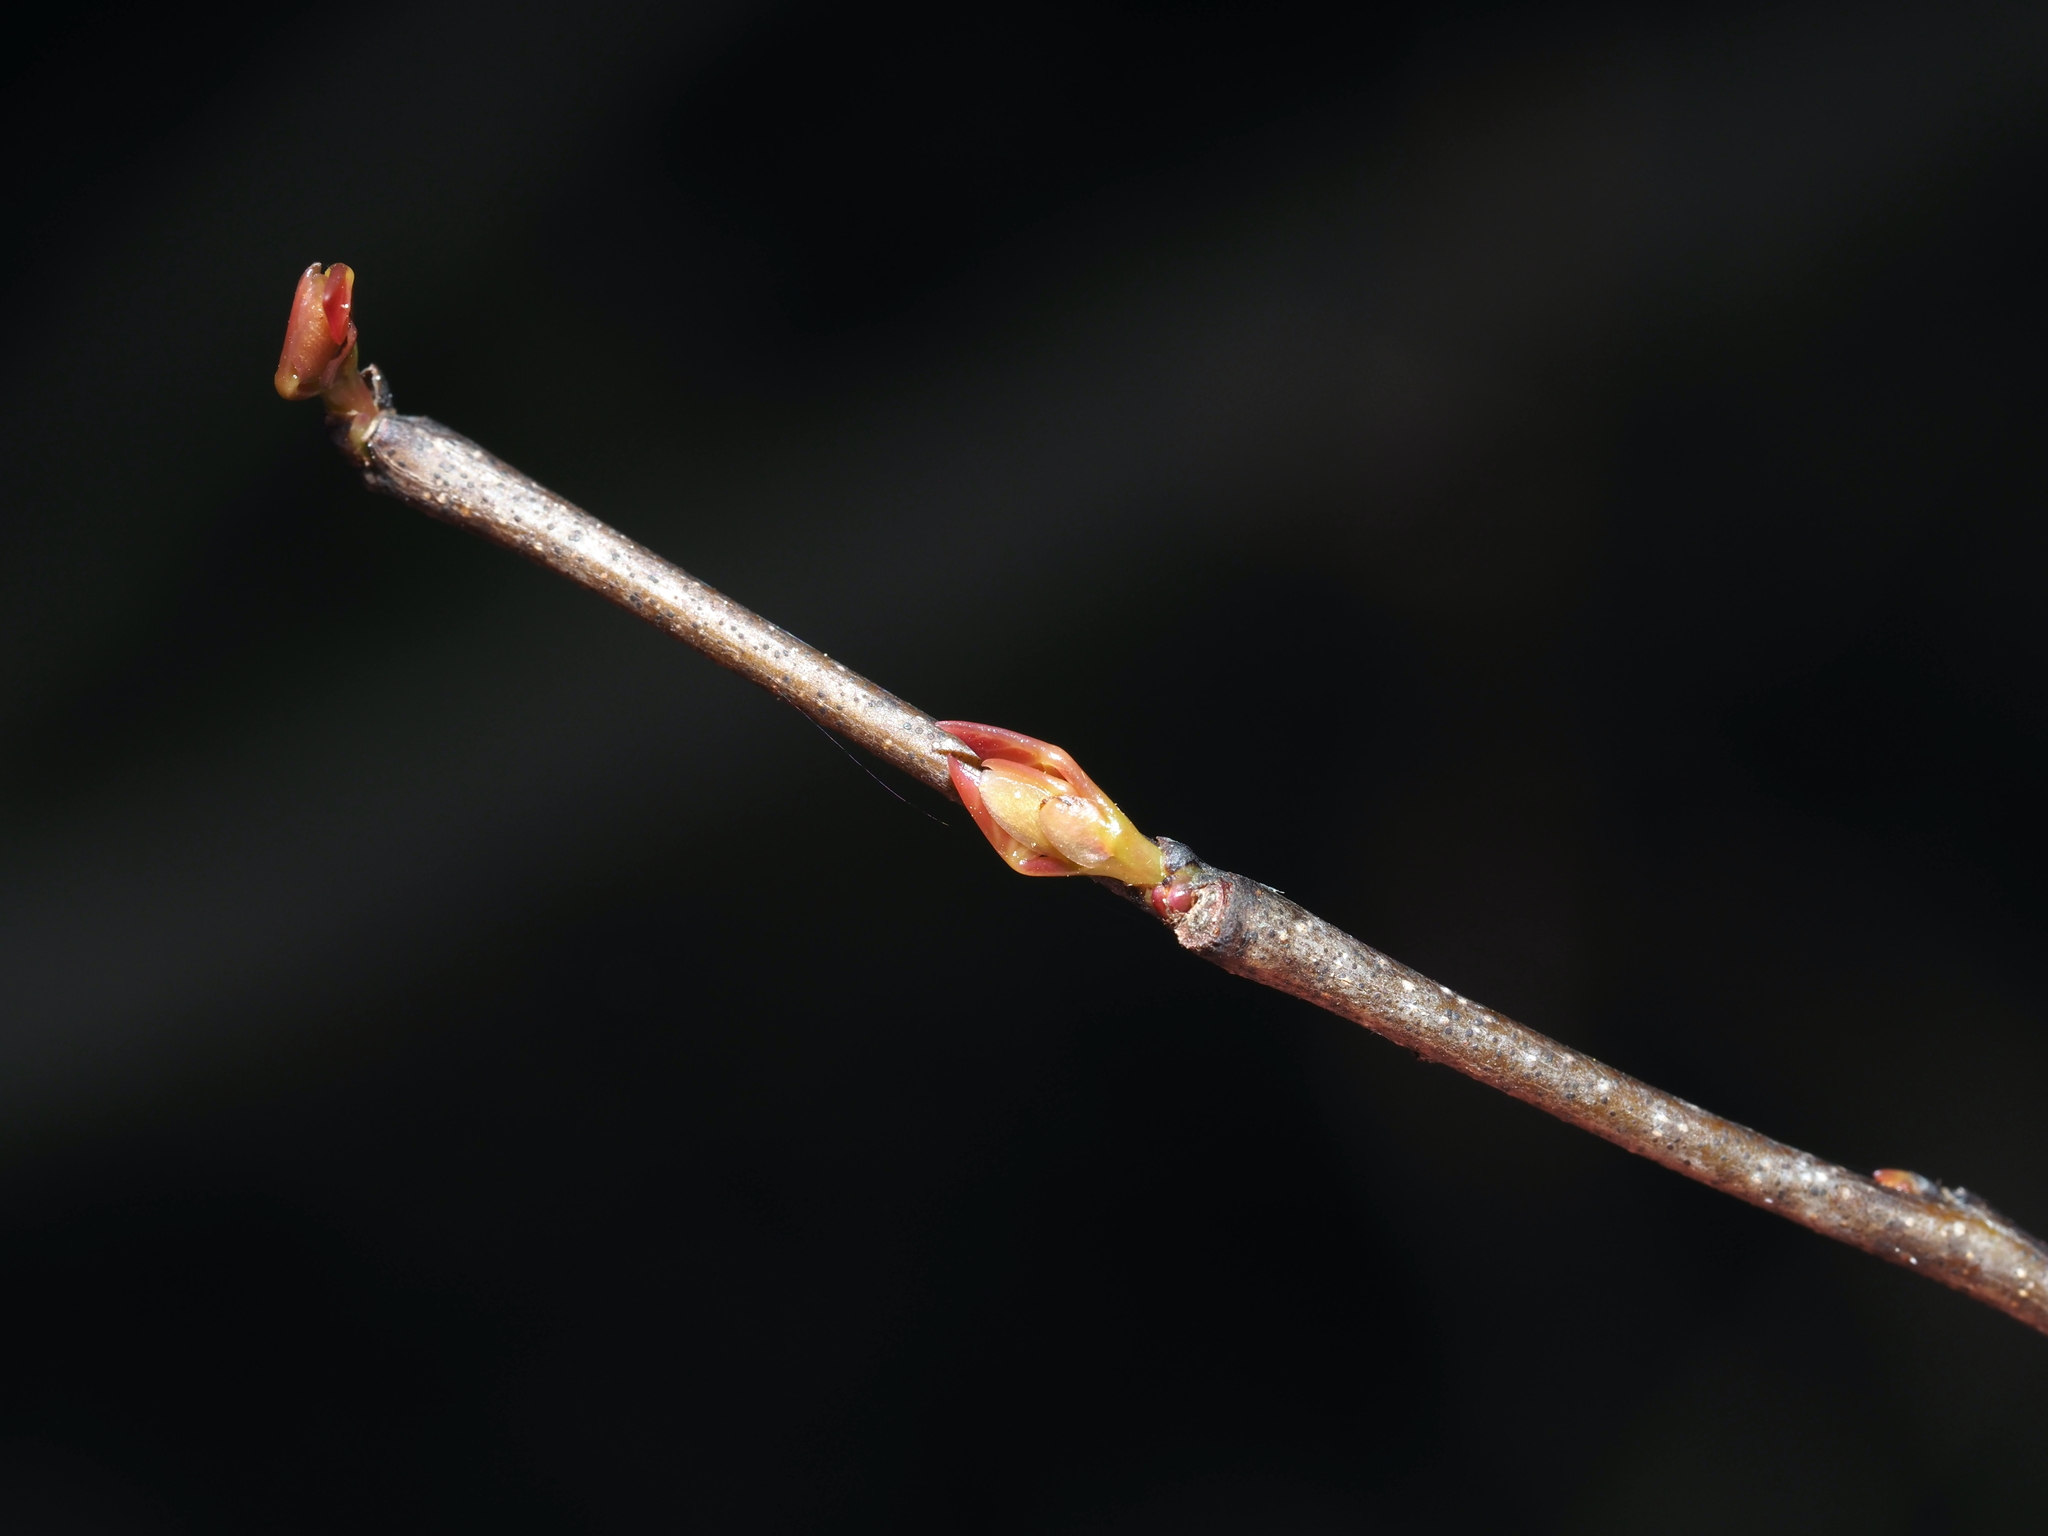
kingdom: Plantae
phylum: Tracheophyta
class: Magnoliopsida
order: Fabales
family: Fabaceae
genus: Cercis
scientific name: Cercis canadensis
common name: Eastern redbud
